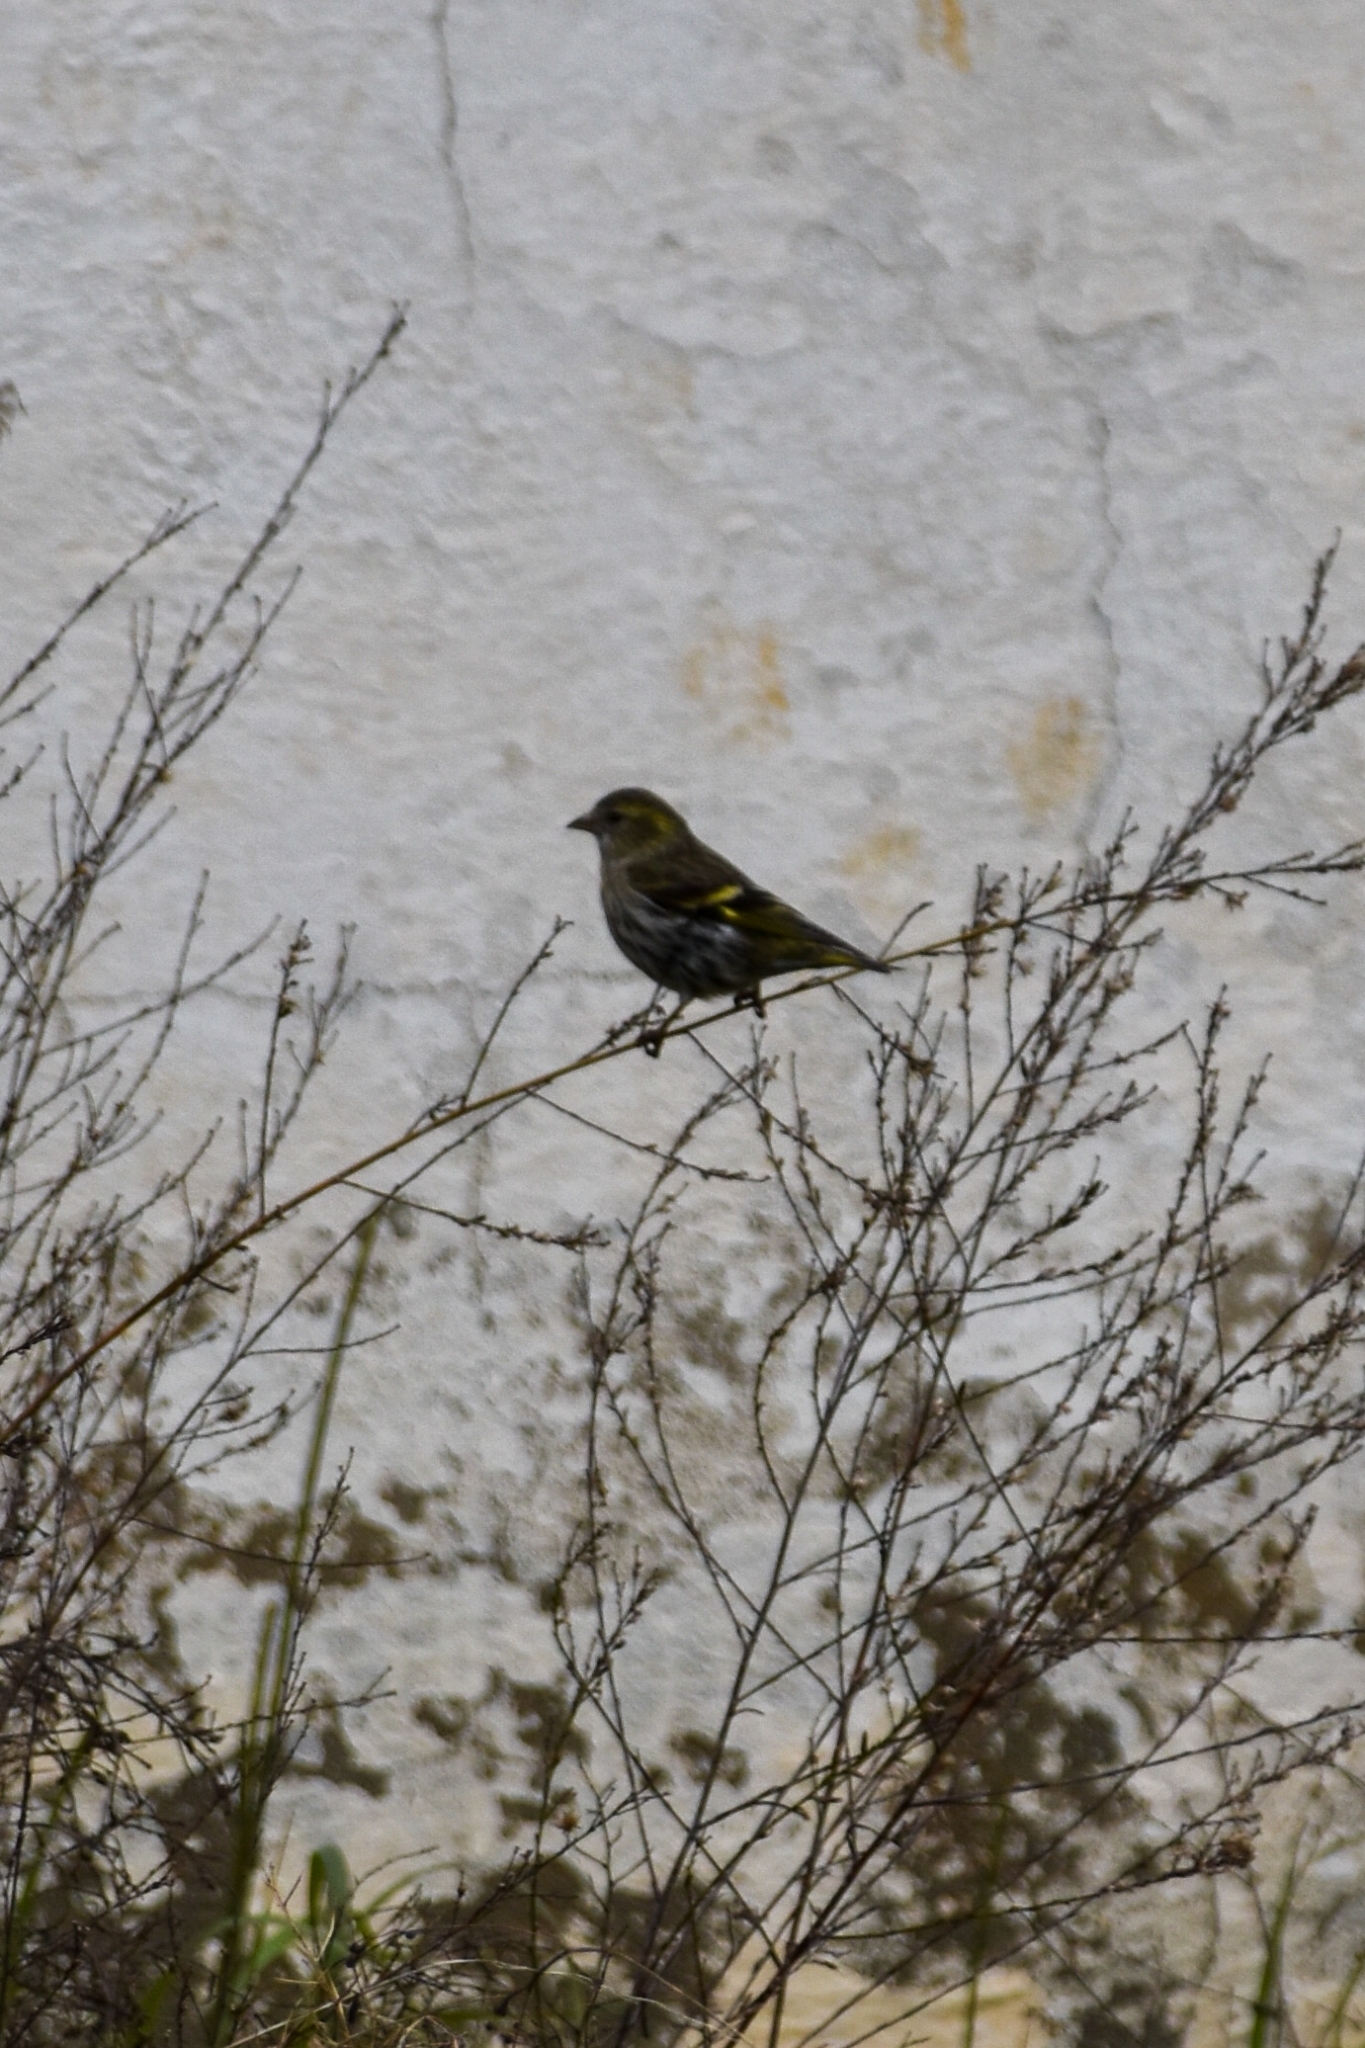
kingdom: Animalia
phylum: Chordata
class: Aves
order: Passeriformes
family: Fringillidae
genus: Spinus
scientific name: Spinus spinus
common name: Eurasian siskin
